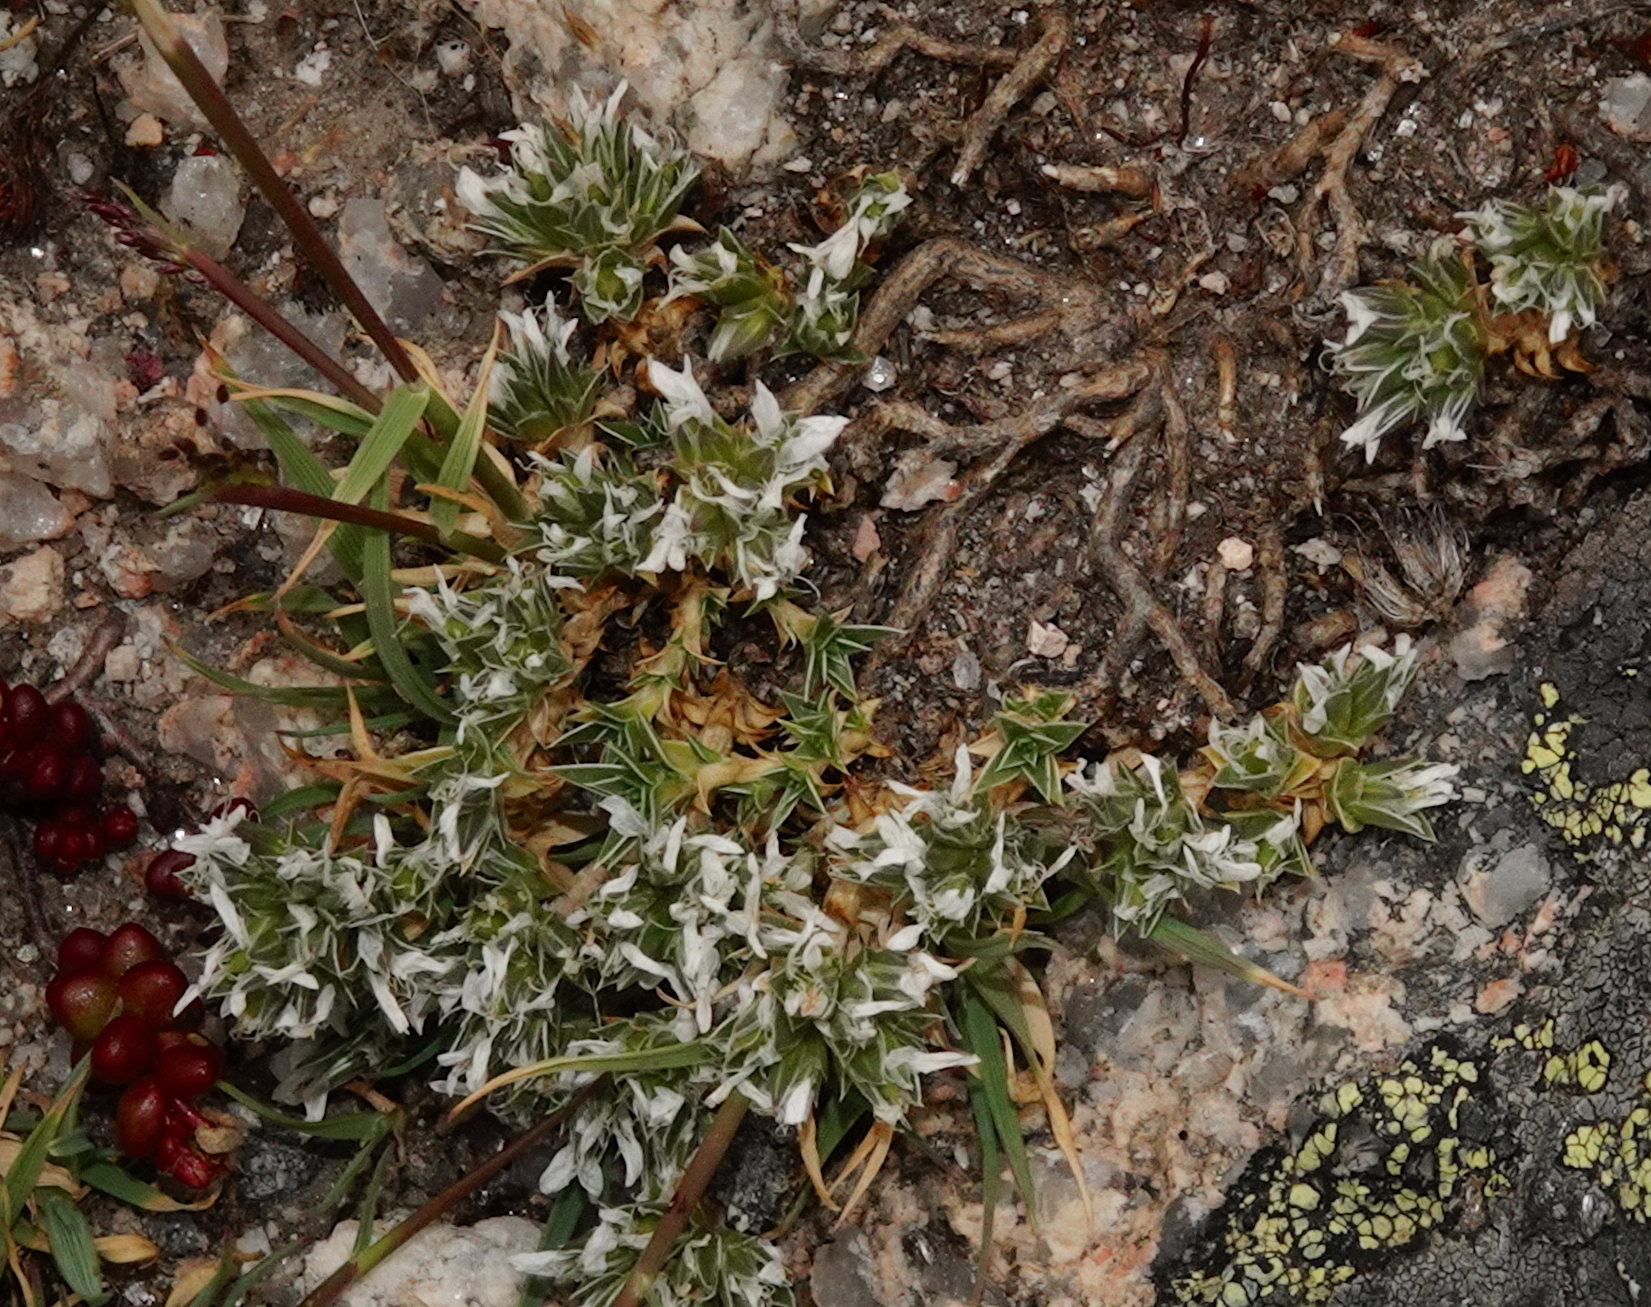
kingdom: Plantae
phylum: Tracheophyta
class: Magnoliopsida
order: Caryophyllales
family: Caryophyllaceae
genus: Arenaria
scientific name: Arenaria querioides
